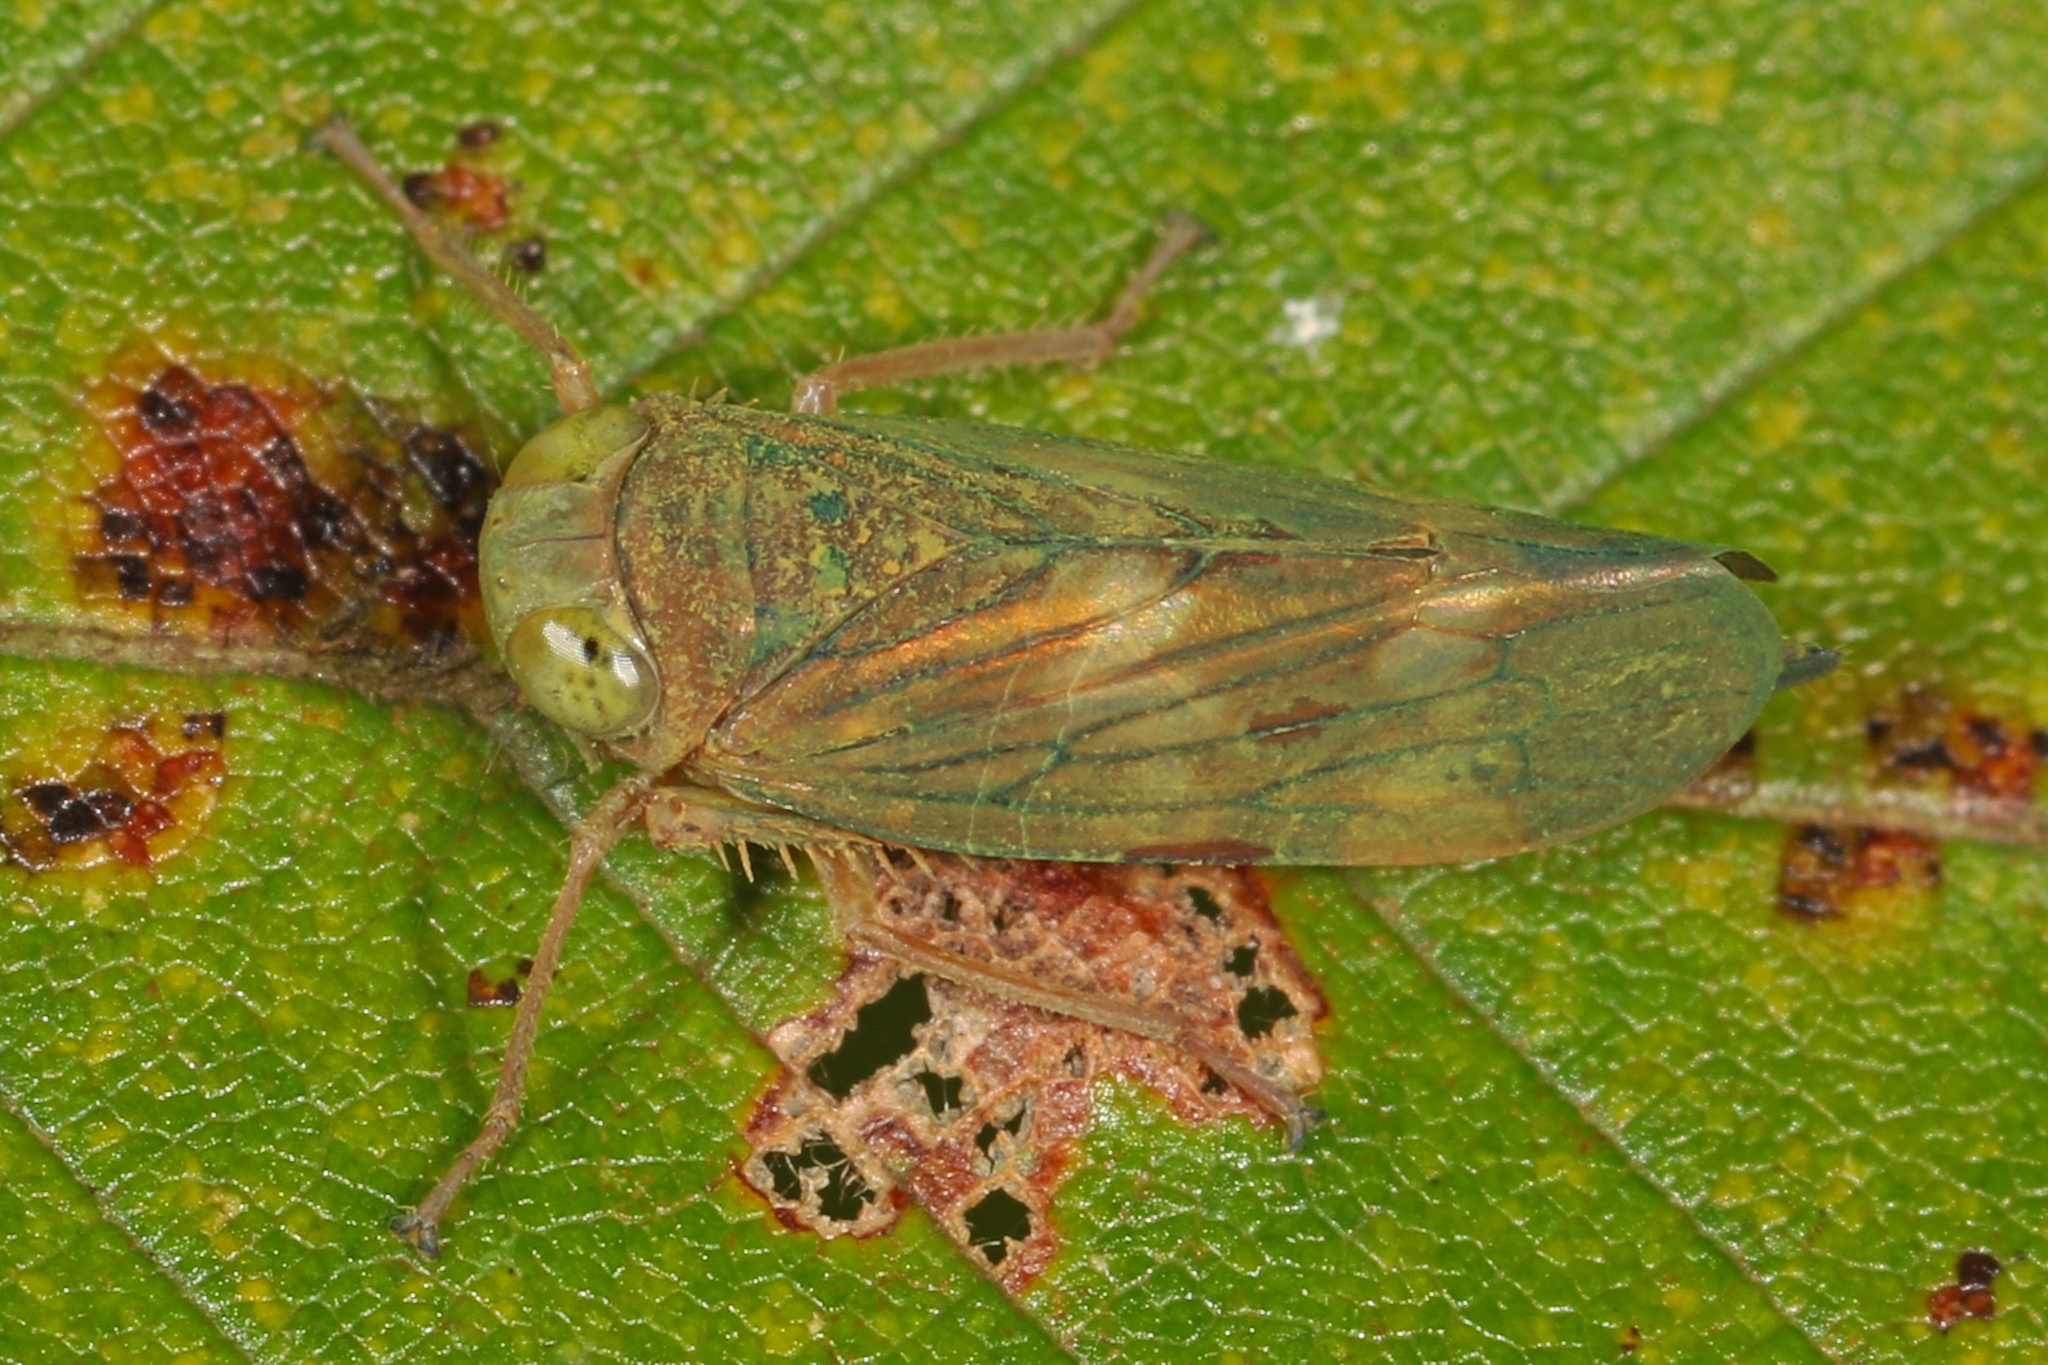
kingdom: Animalia
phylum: Arthropoda
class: Insecta
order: Hemiptera
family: Cicadellidae
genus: Jikradia
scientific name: Jikradia olitoria
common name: Coppery leafhopper
